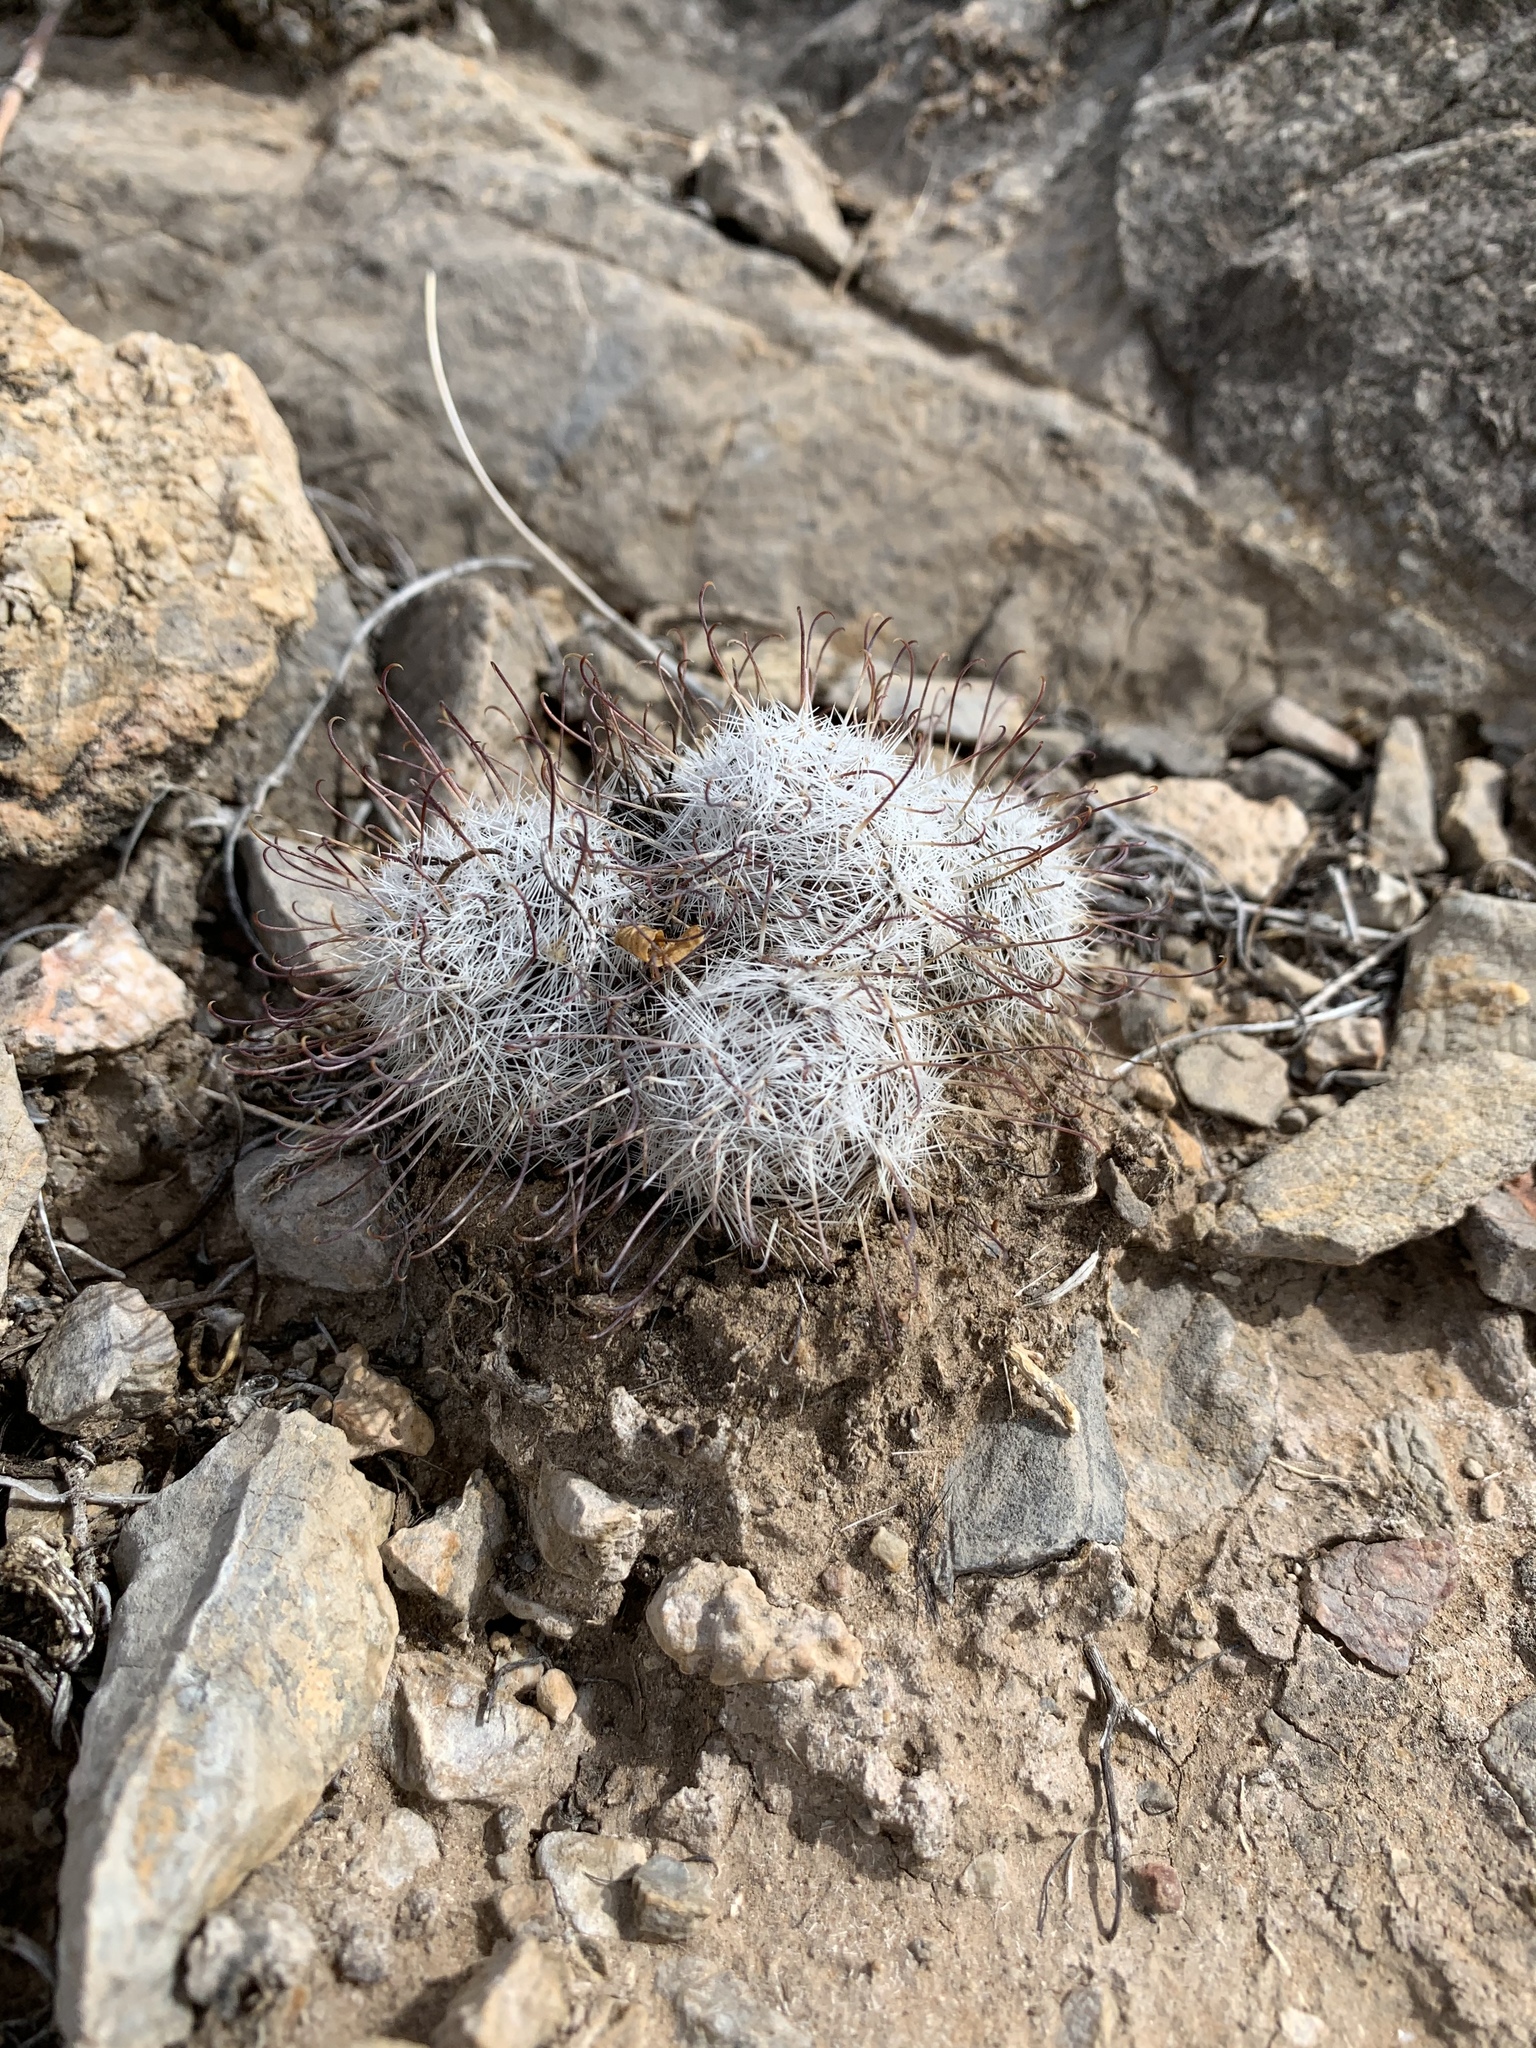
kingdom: Plantae
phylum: Tracheophyta
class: Magnoliopsida
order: Caryophyllales
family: Cactaceae
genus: Cochemiea
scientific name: Cochemiea grahamii
